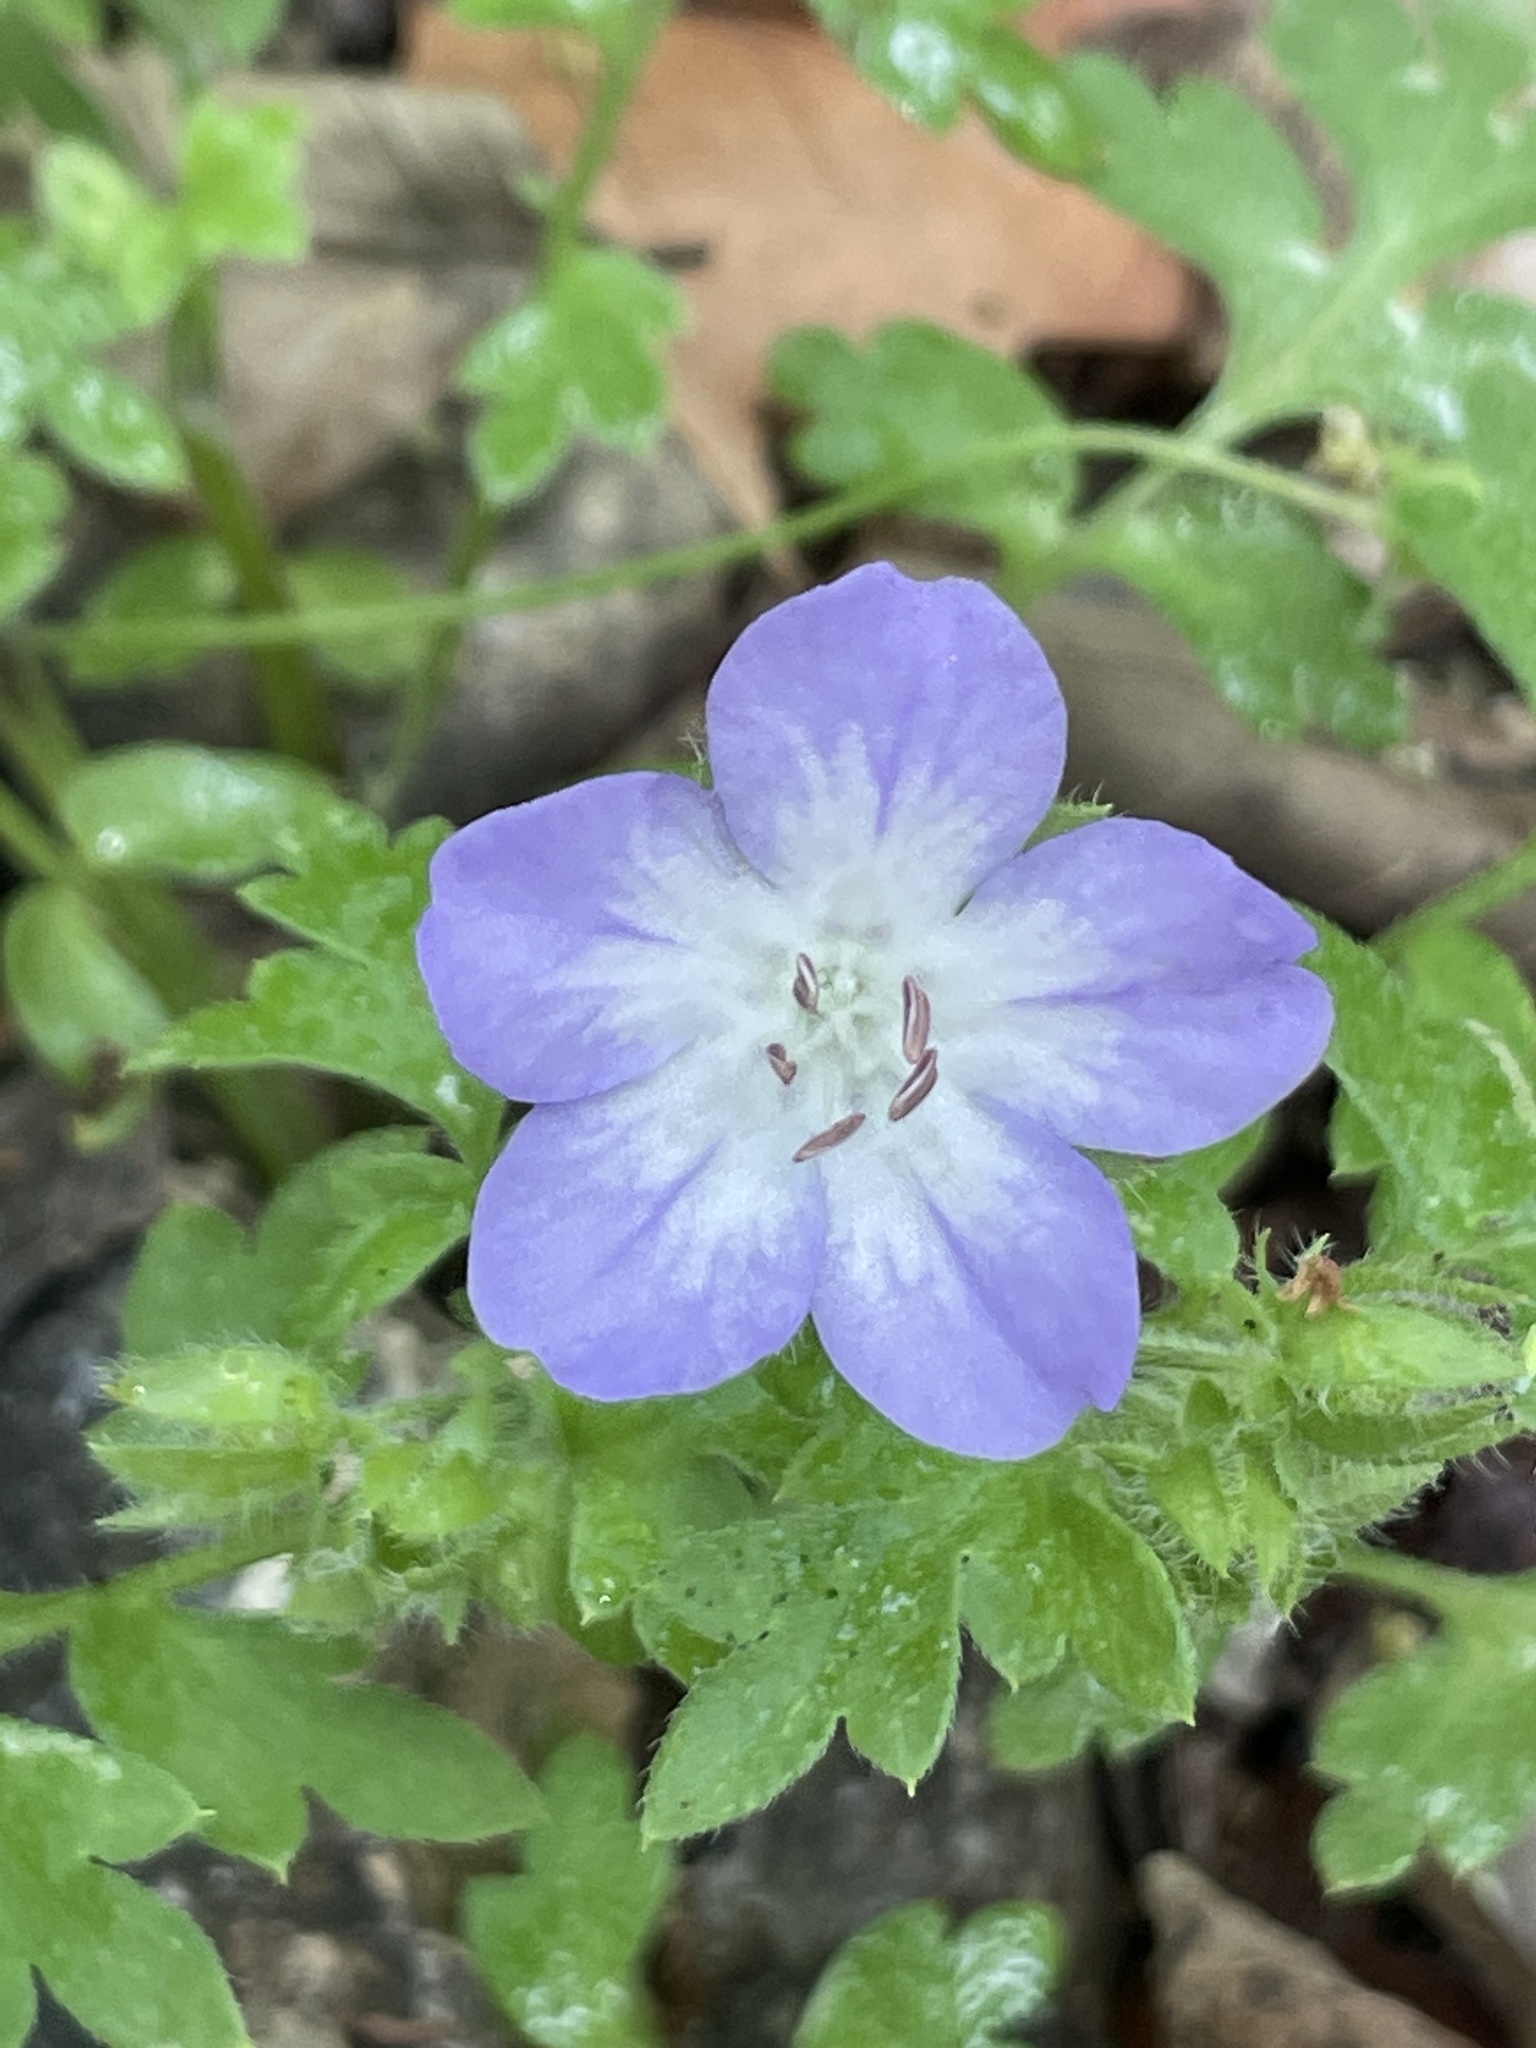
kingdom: Plantae
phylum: Tracheophyta
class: Magnoliopsida
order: Boraginales
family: Hydrophyllaceae
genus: Nemophila
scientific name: Nemophila phacelioides
